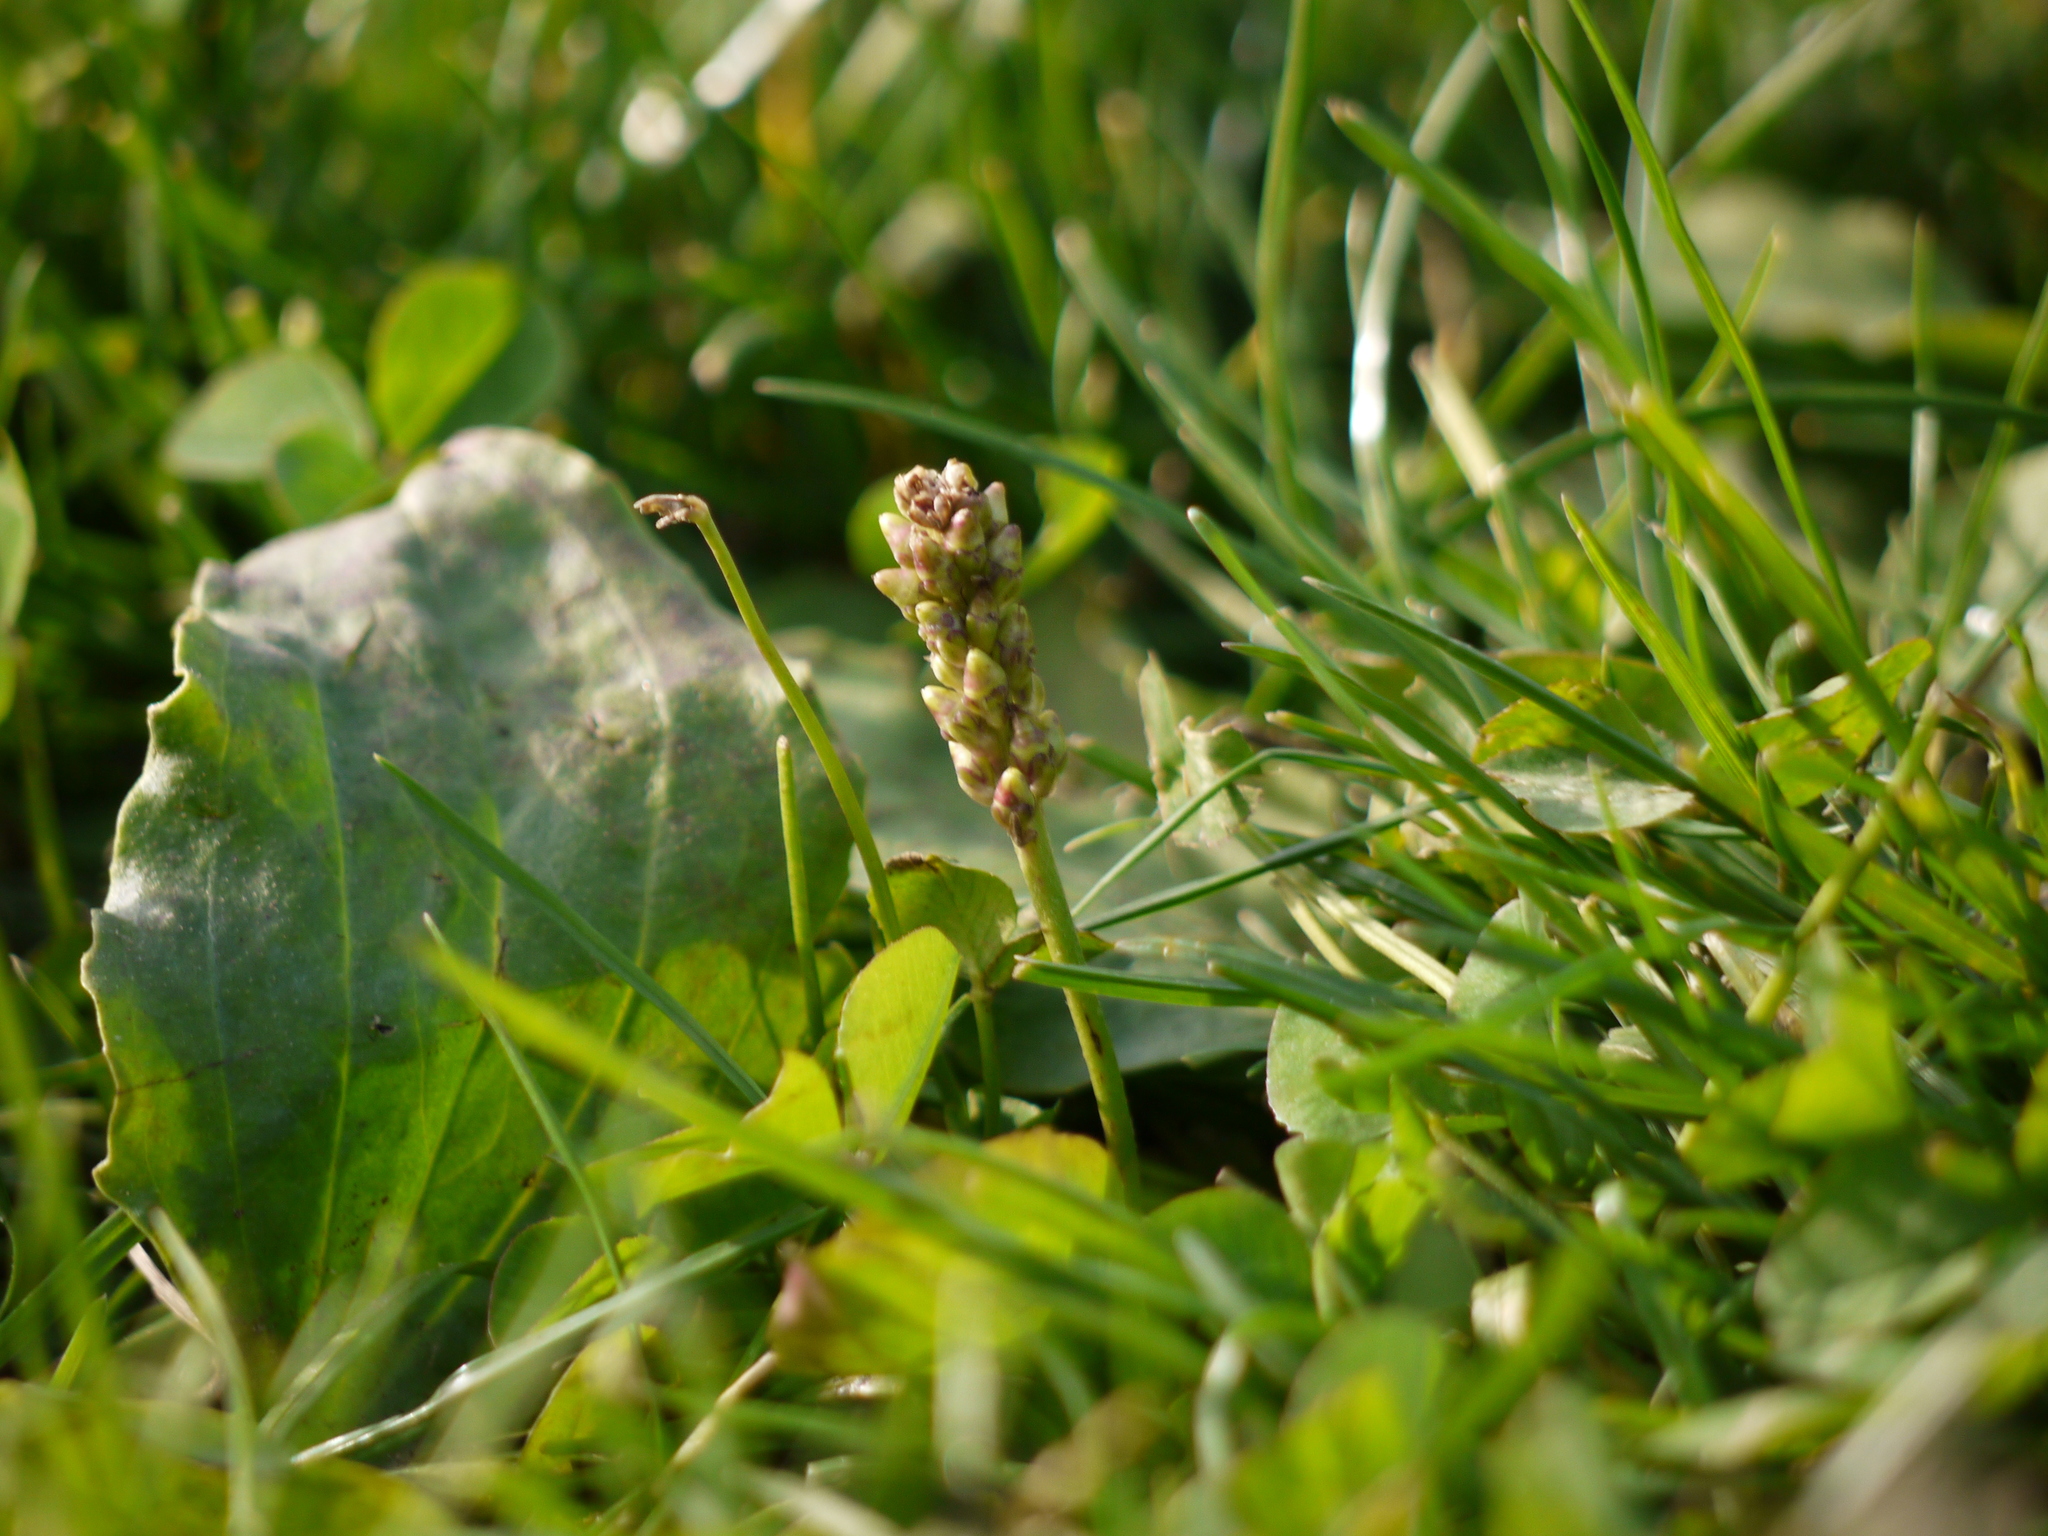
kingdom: Plantae
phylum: Tracheophyta
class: Magnoliopsida
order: Lamiales
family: Plantaginaceae
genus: Plantago
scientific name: Plantago major
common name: Common plantain
